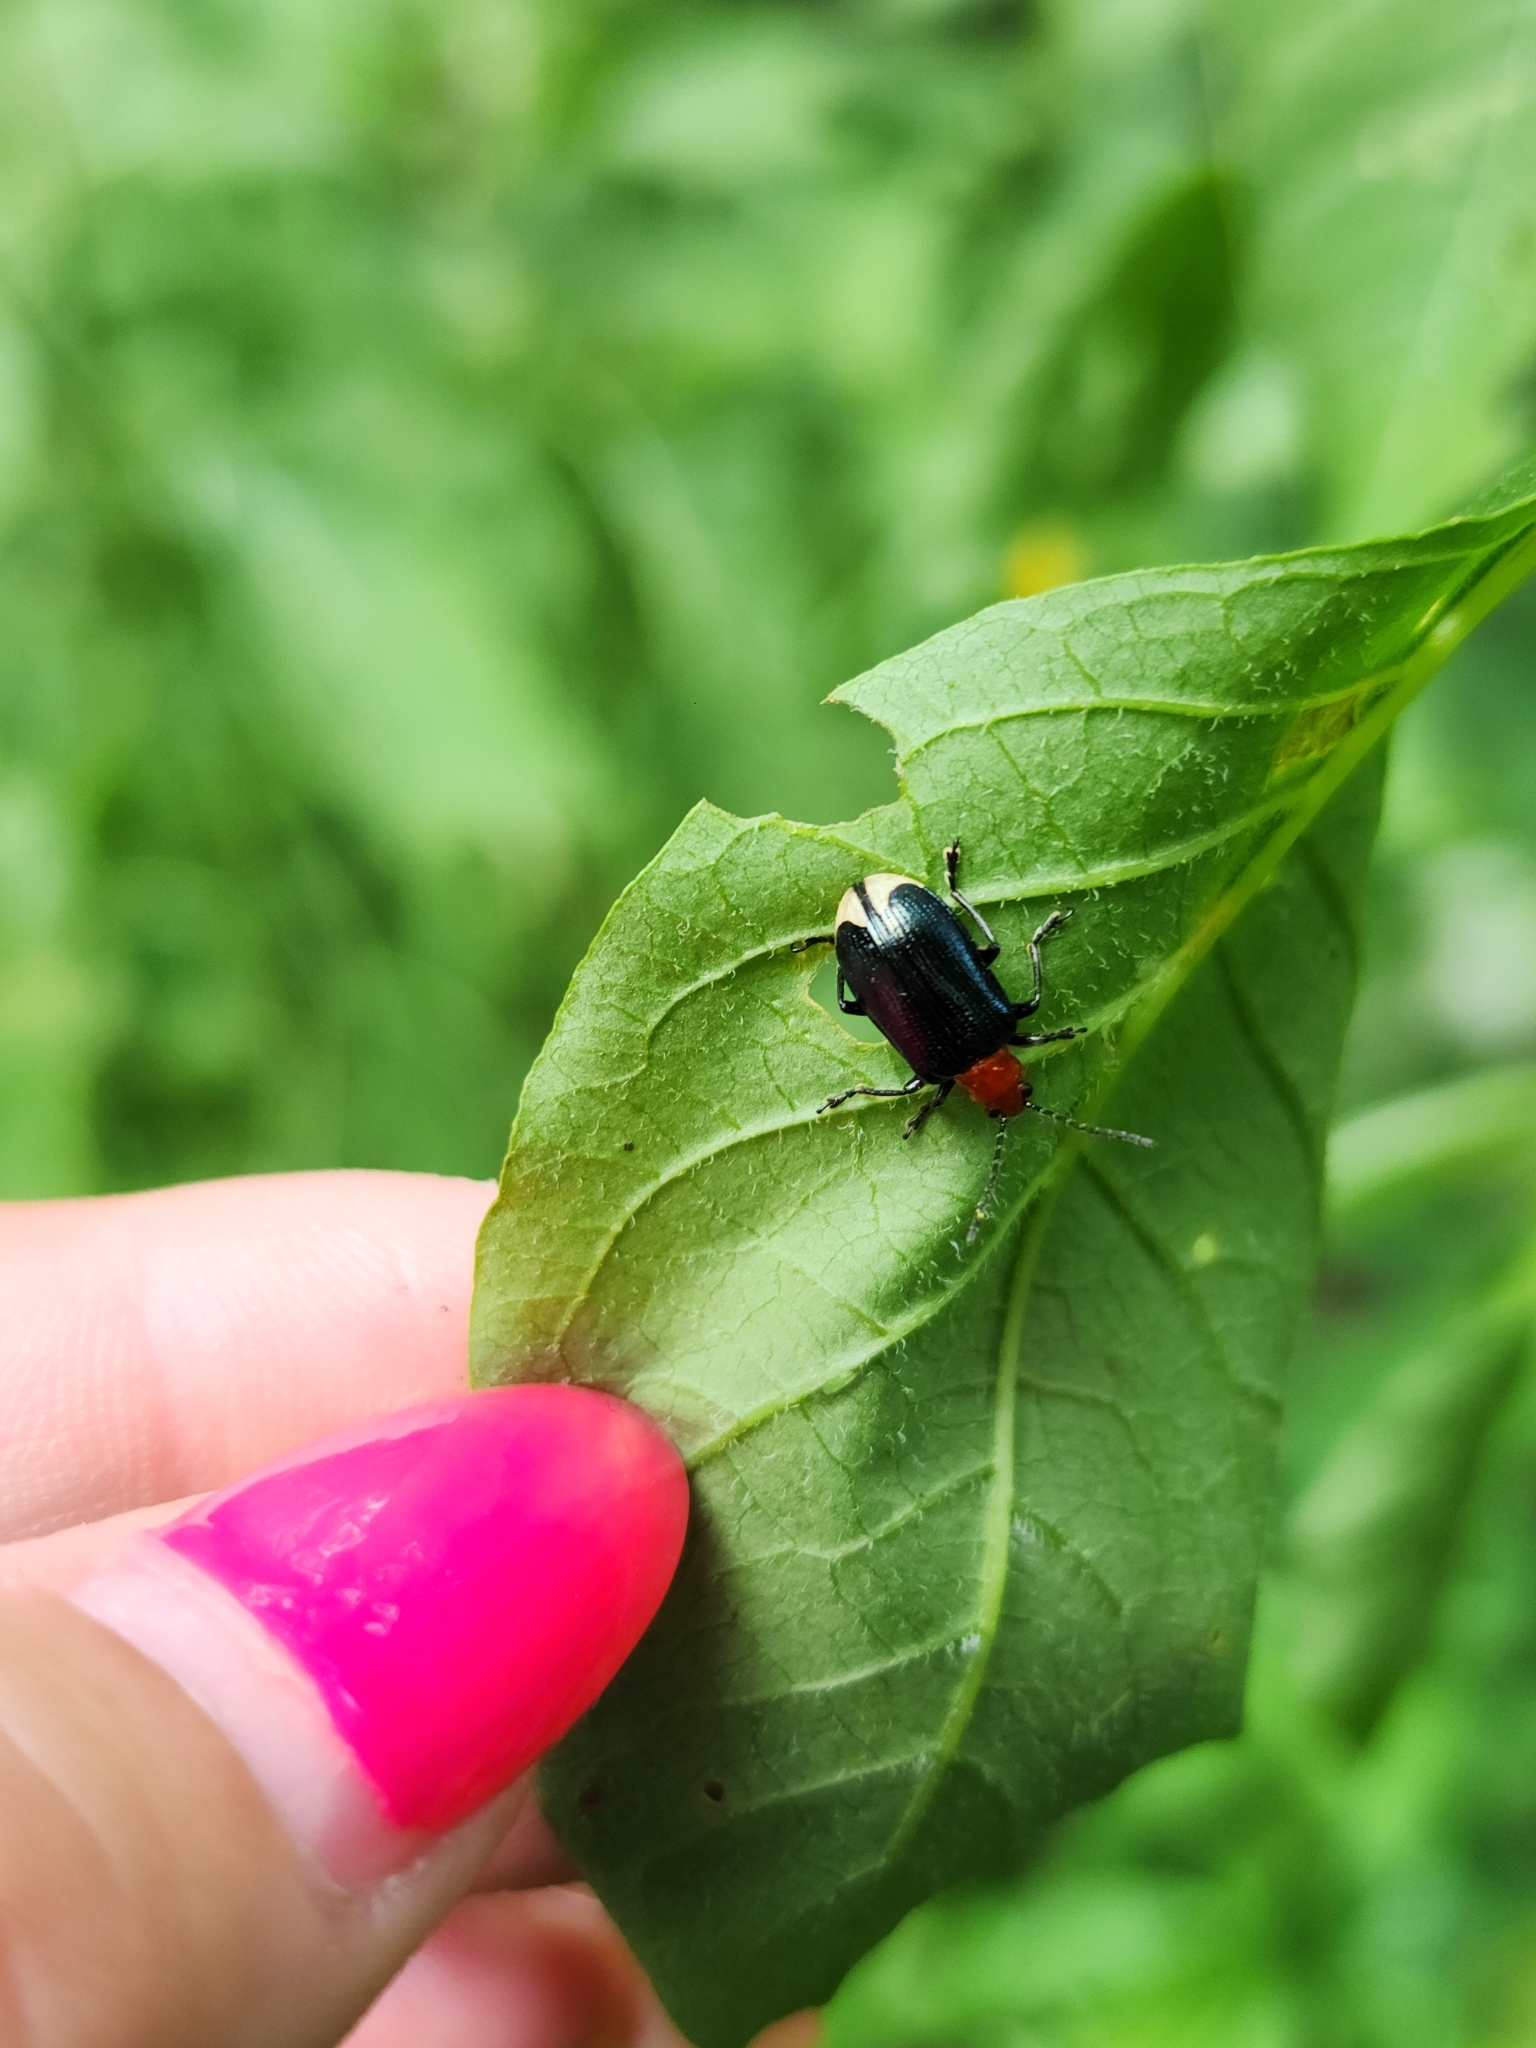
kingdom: Animalia
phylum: Arthropoda
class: Insecta
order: Coleoptera
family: Chrysomelidae
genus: Stolas
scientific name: Stolas chalybaea
